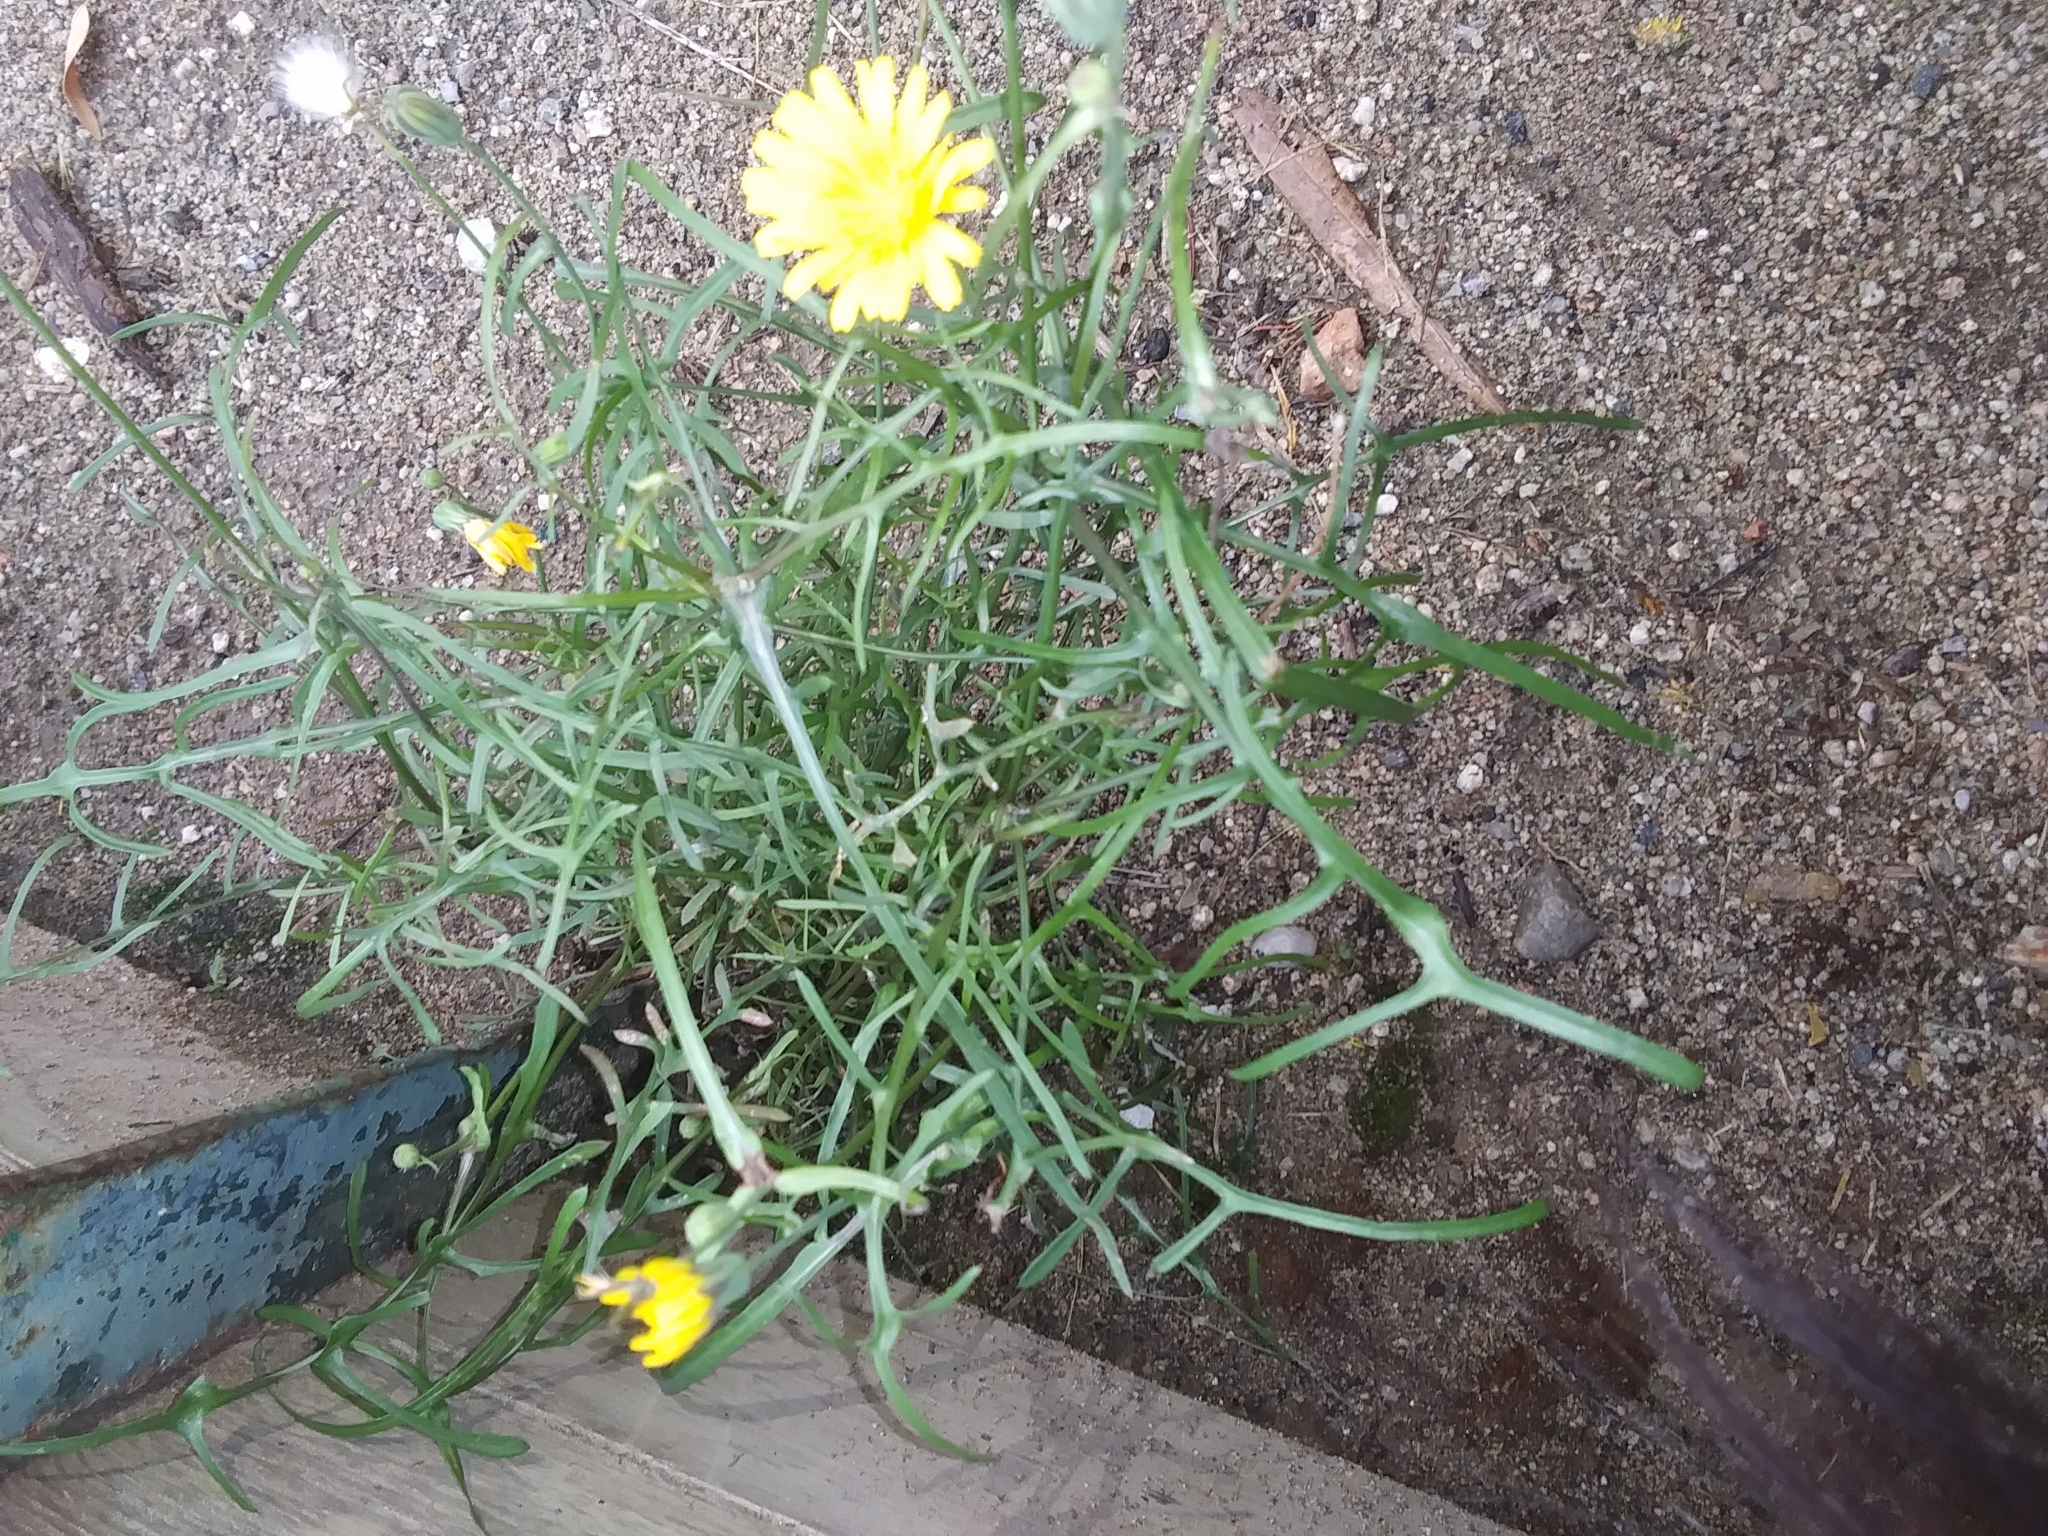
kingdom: Plantae
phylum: Tracheophyta
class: Magnoliopsida
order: Asterales
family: Asteraceae
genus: Sonchus
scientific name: Sonchus tenerrimus
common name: Clammy sowthistle
